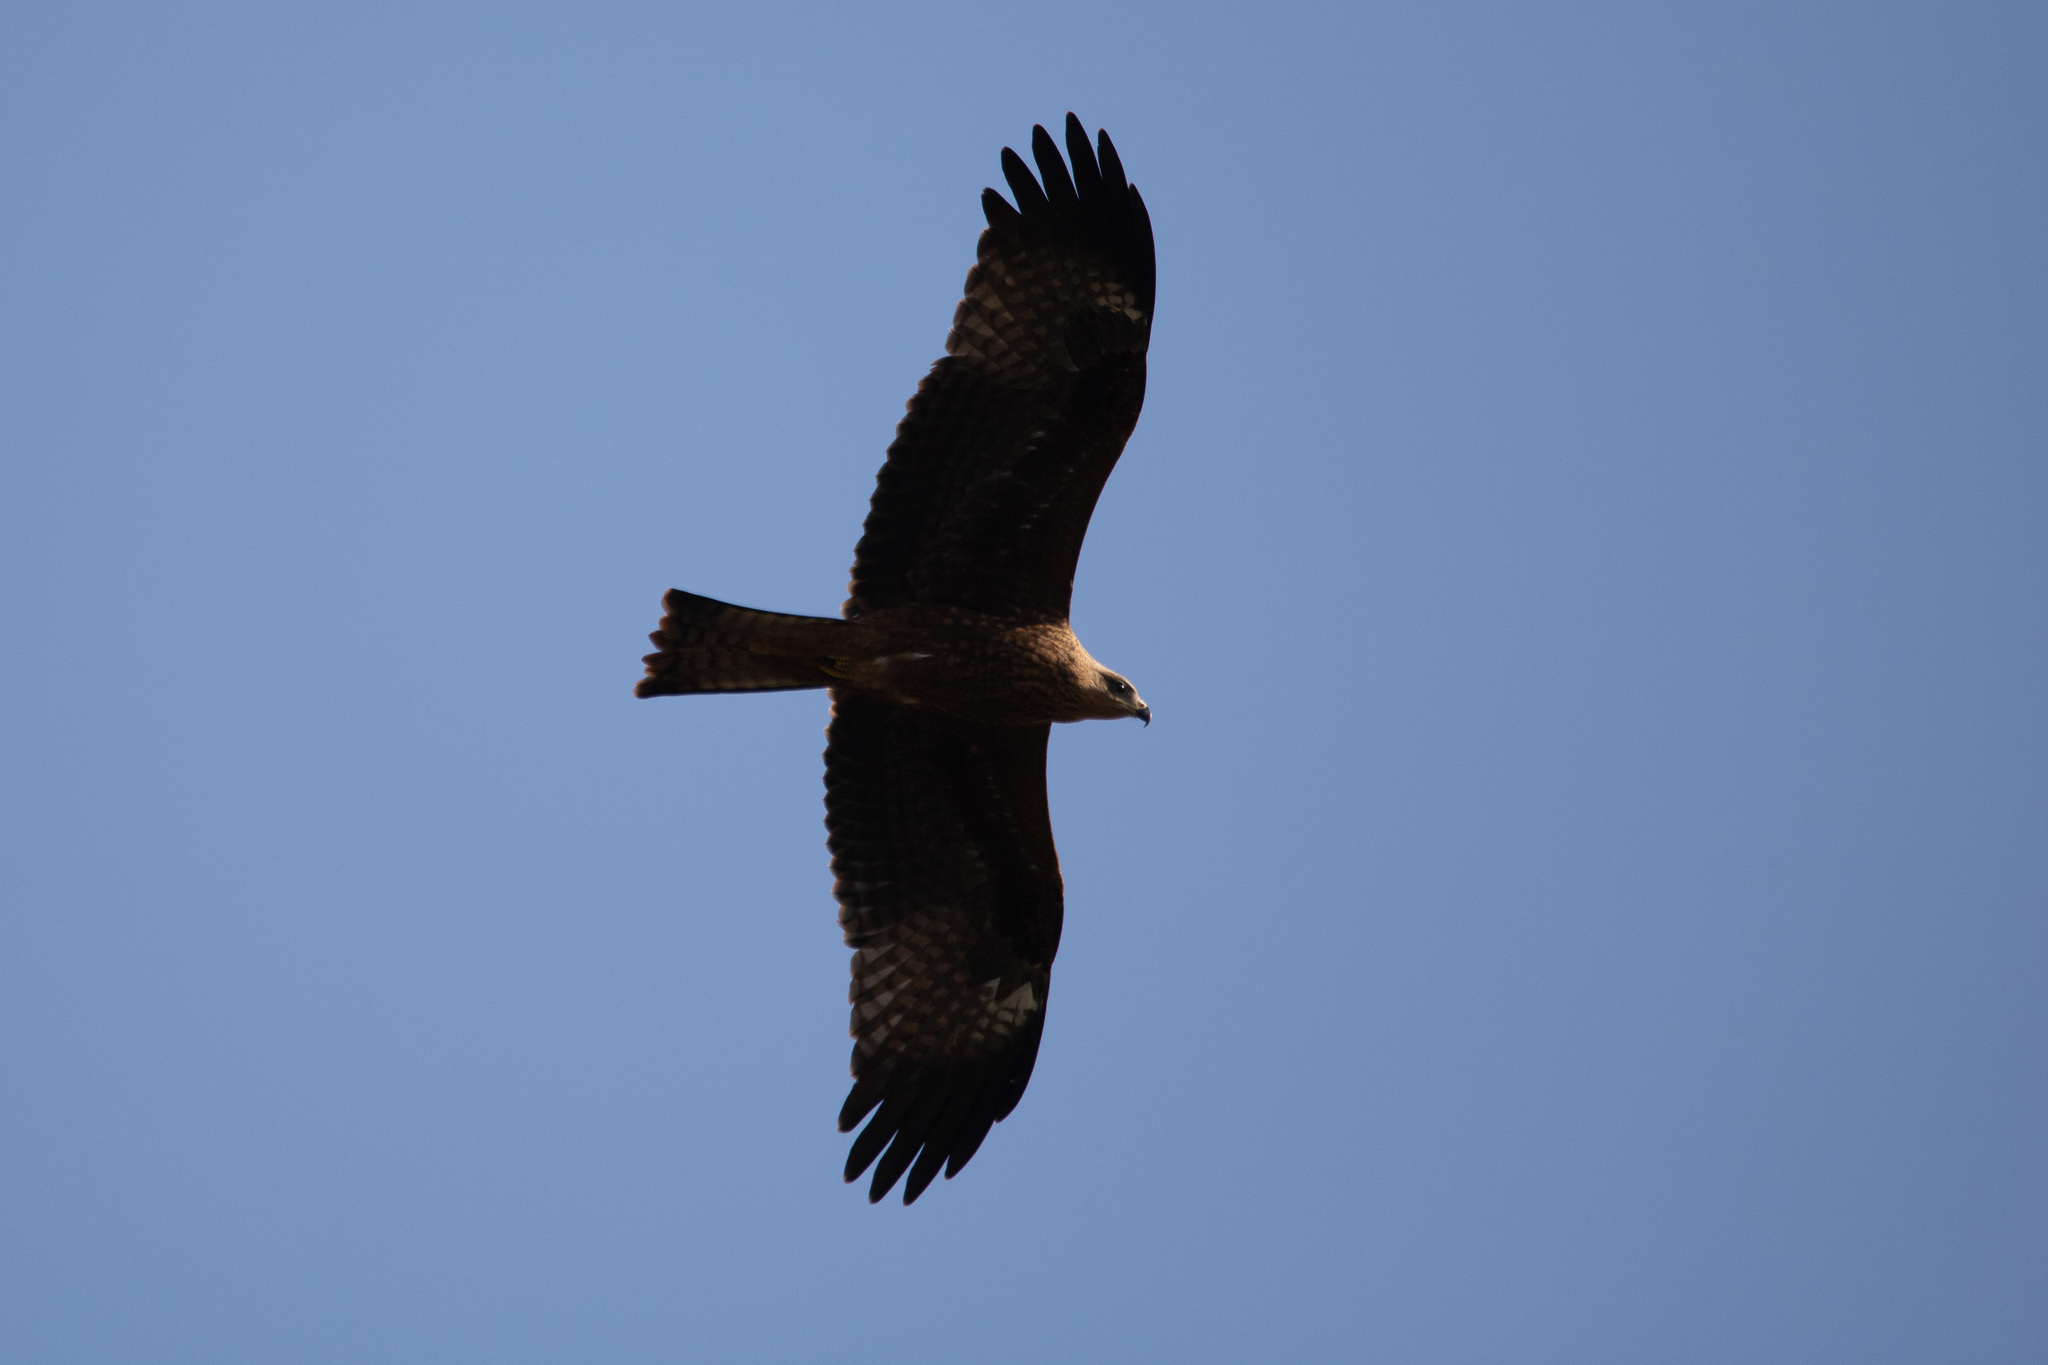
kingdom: Animalia
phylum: Chordata
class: Aves
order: Accipitriformes
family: Accipitridae
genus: Milvus
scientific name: Milvus migrans
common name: Black kite
